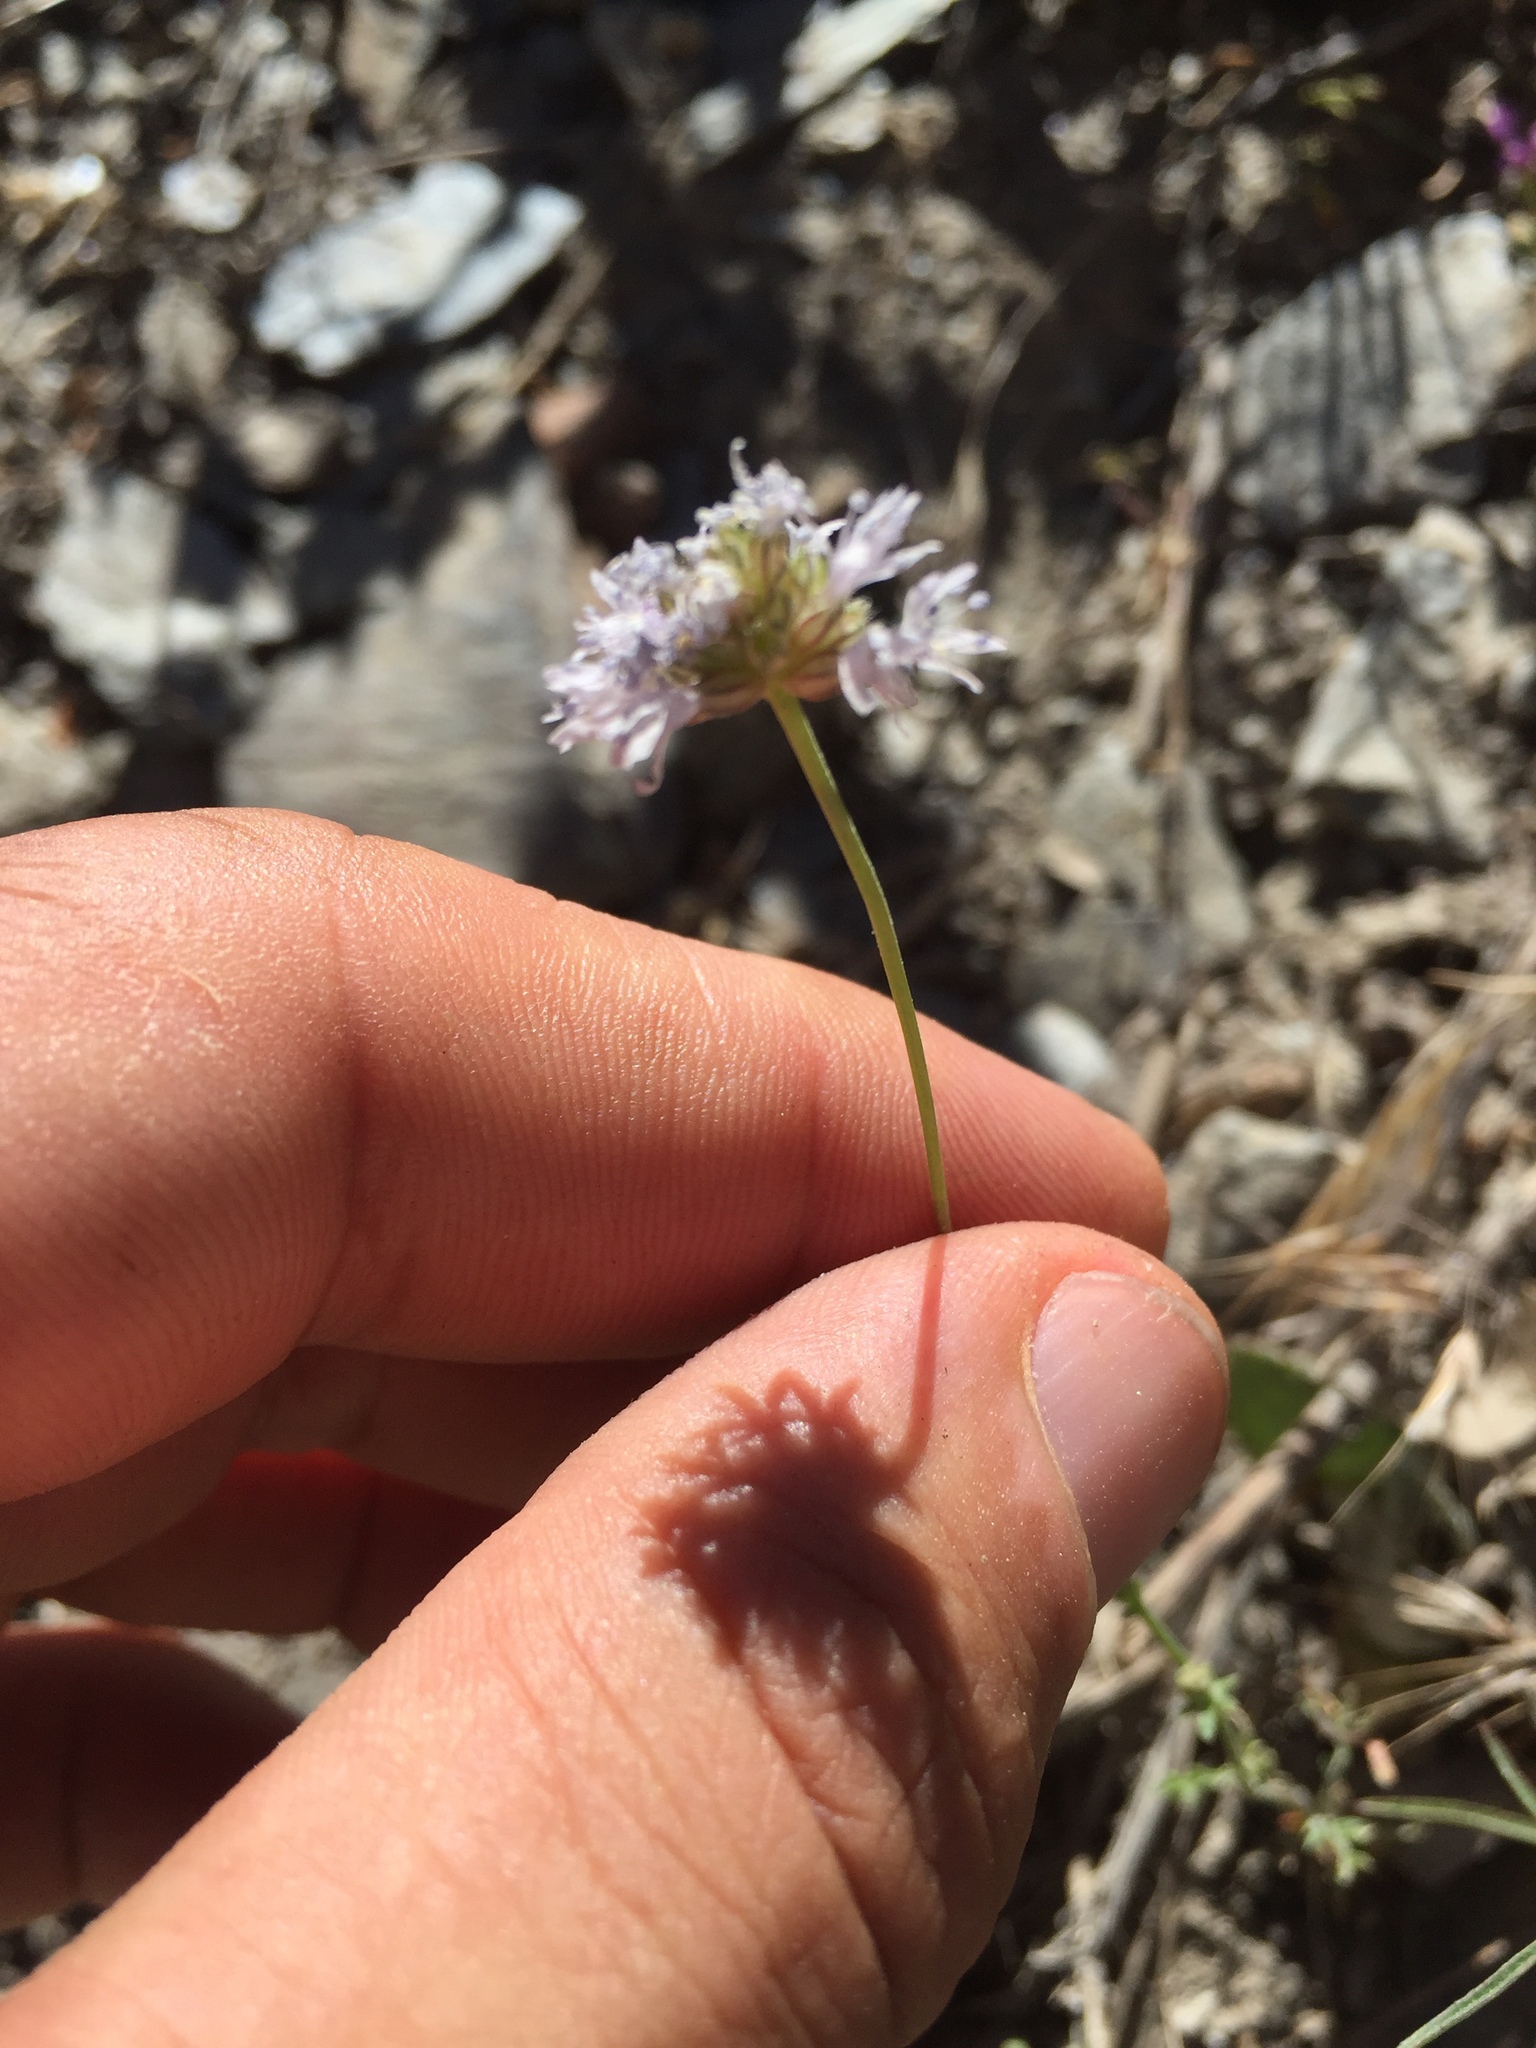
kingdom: Plantae
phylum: Tracheophyta
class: Magnoliopsida
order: Ericales
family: Polemoniaceae
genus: Gilia
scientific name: Gilia capitata
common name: Bluehead gilia
